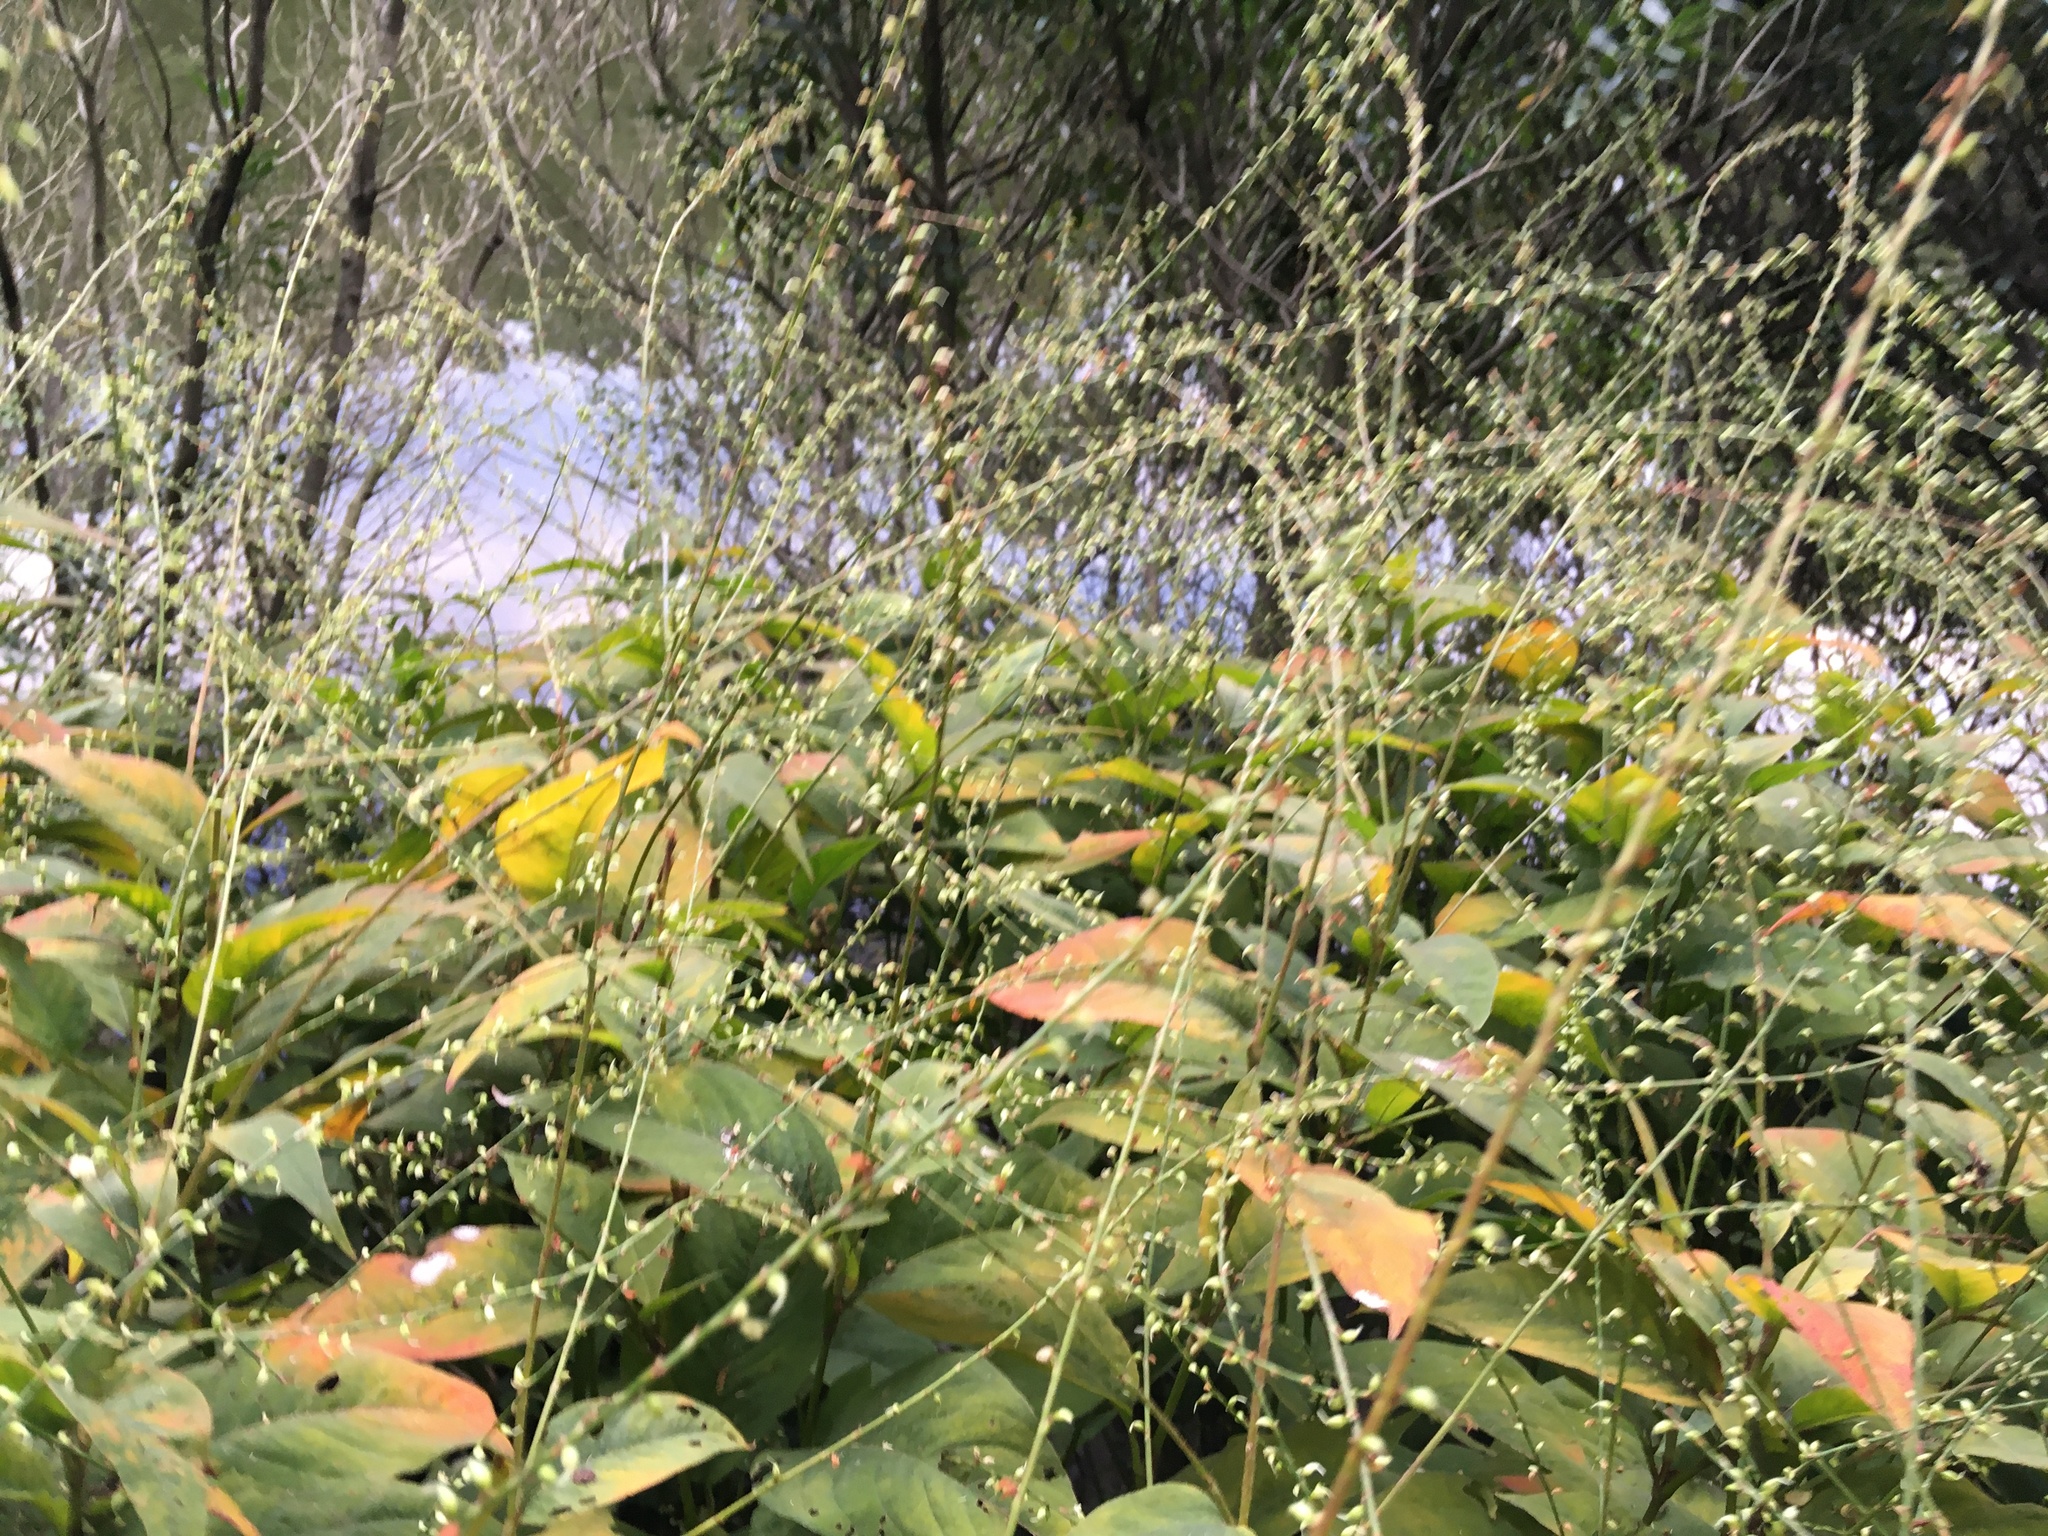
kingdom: Plantae
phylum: Tracheophyta
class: Magnoliopsida
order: Caryophyllales
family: Polygonaceae
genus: Persicaria
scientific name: Persicaria virginiana
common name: Jumpseed
